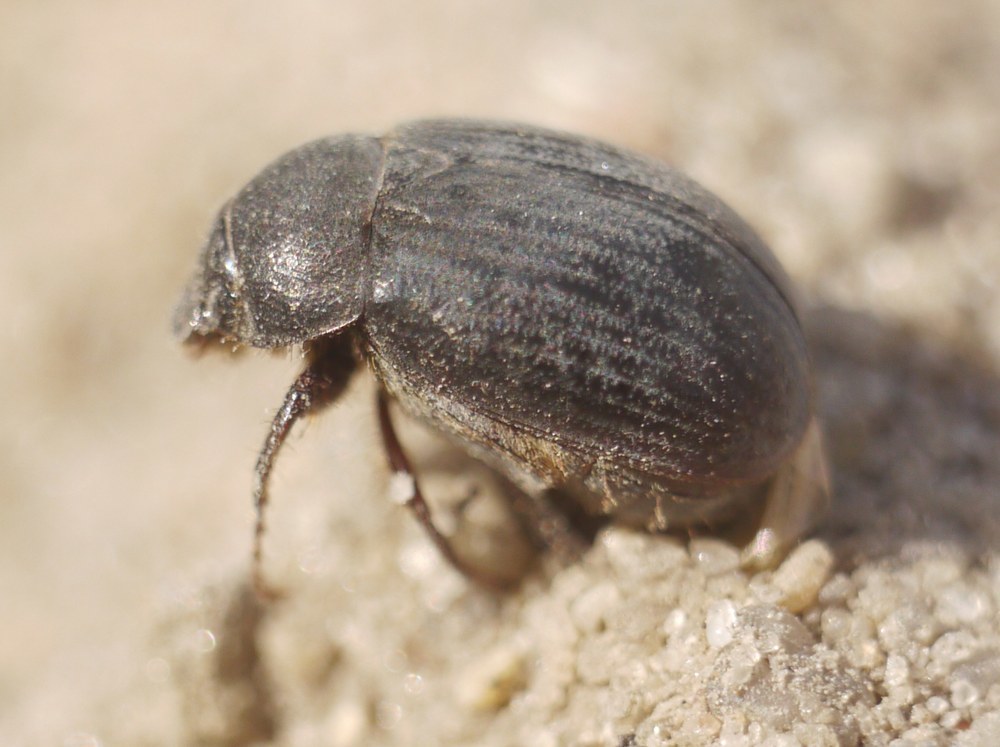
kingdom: Animalia
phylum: Arthropoda
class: Insecta
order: Coleoptera
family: Scarabaeidae
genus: Maladera
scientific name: Maladera holosericea
